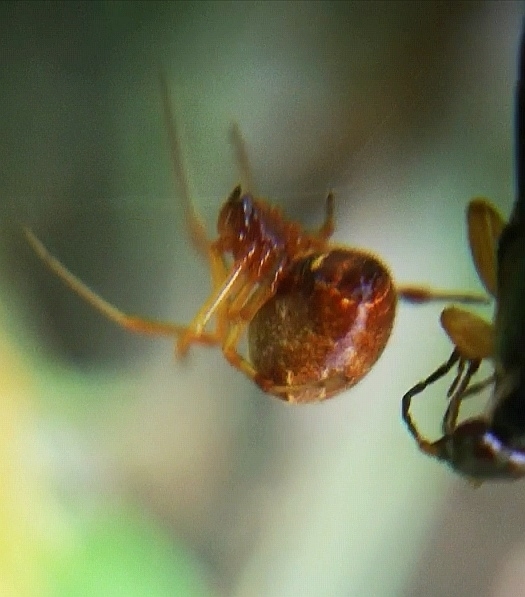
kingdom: Animalia
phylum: Arthropoda
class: Arachnida
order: Araneae
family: Theridiidae
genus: Parasteatoda
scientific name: Parasteatoda lunata
